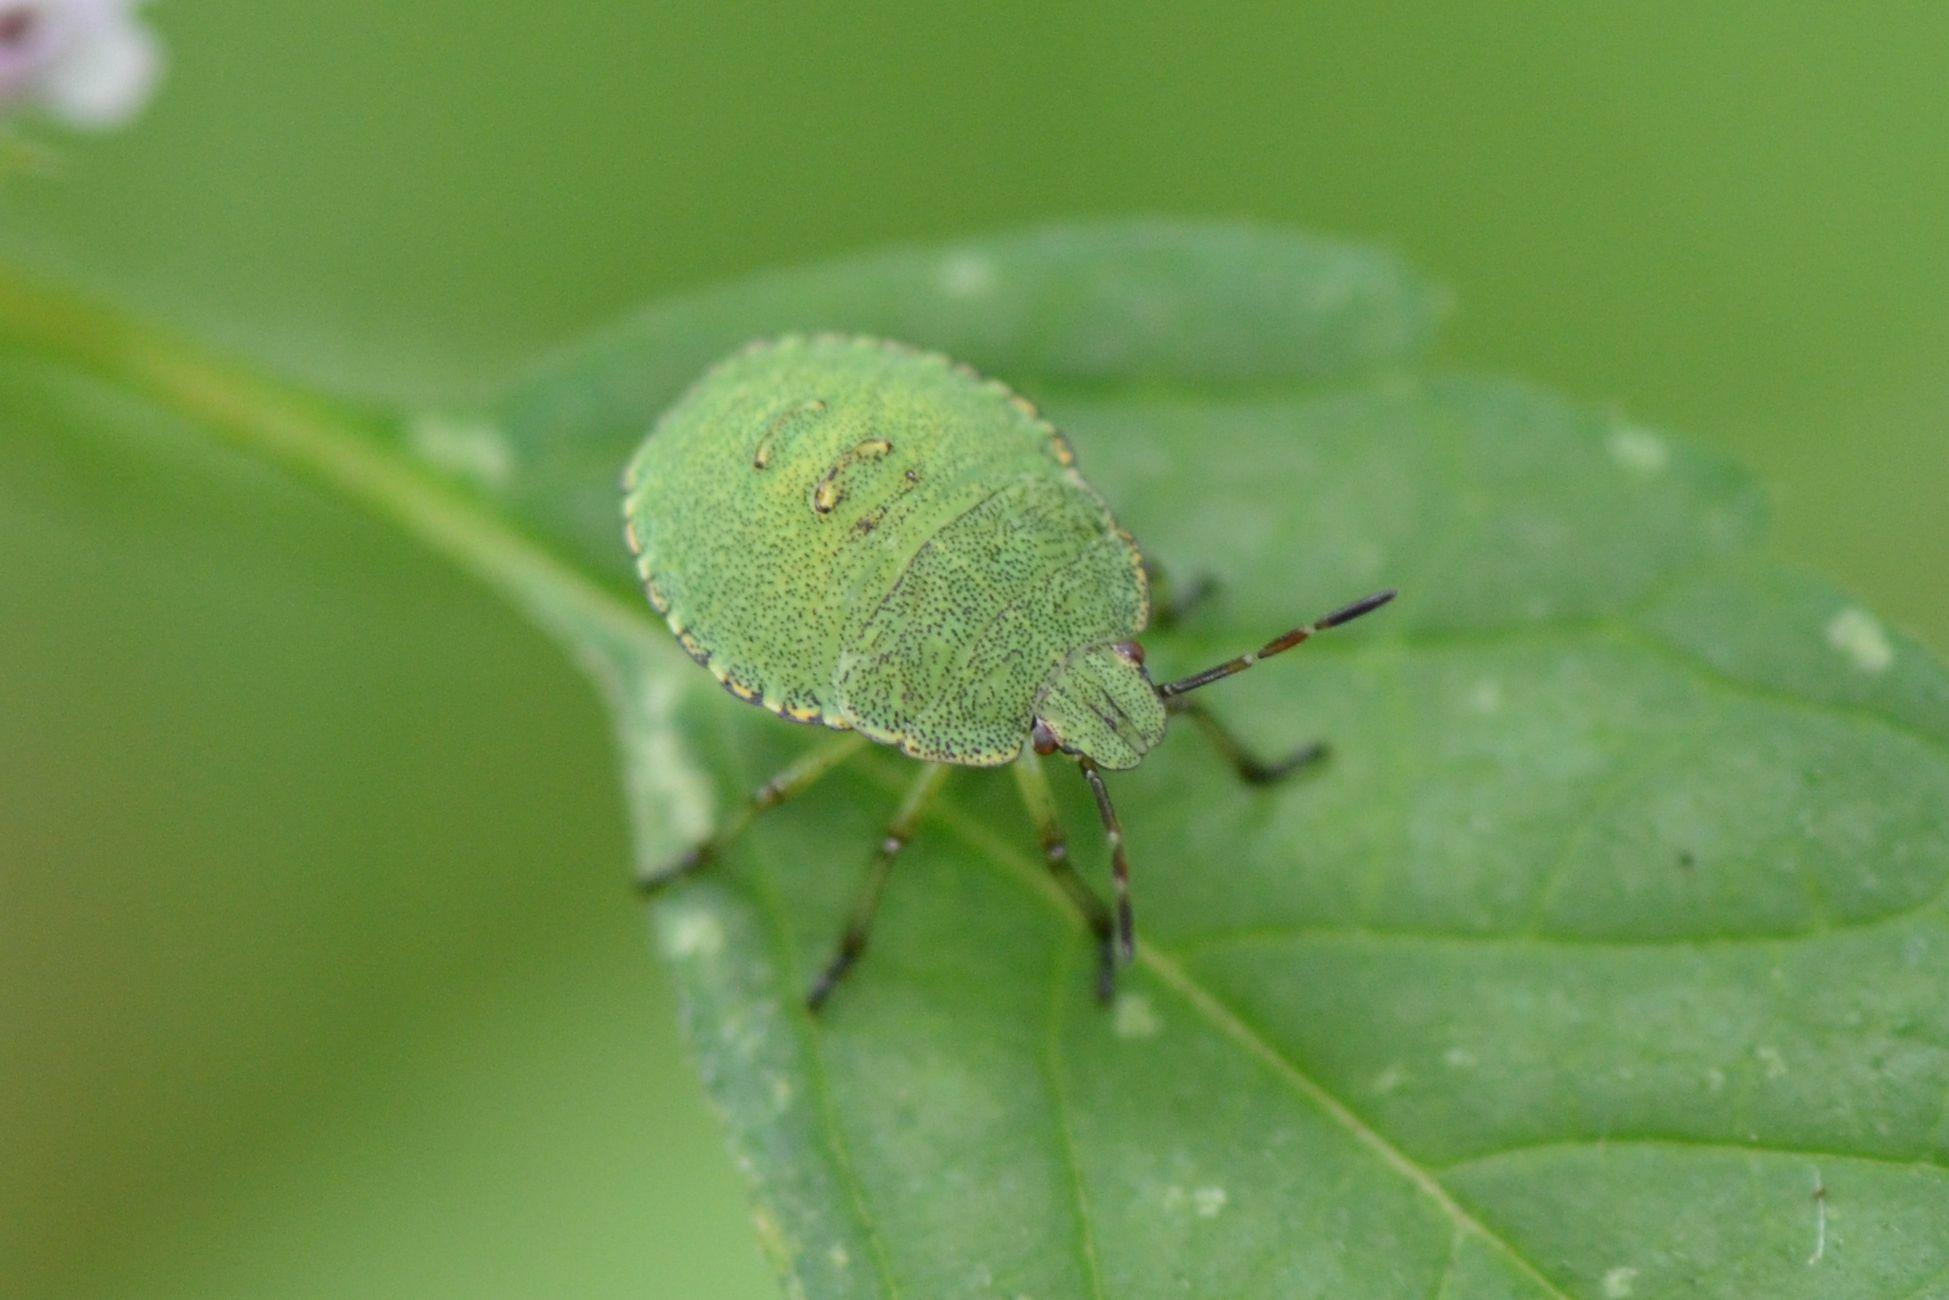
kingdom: Animalia
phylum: Arthropoda
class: Insecta
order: Hemiptera
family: Pentatomidae
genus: Palomena
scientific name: Palomena prasina
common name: Green shieldbug
